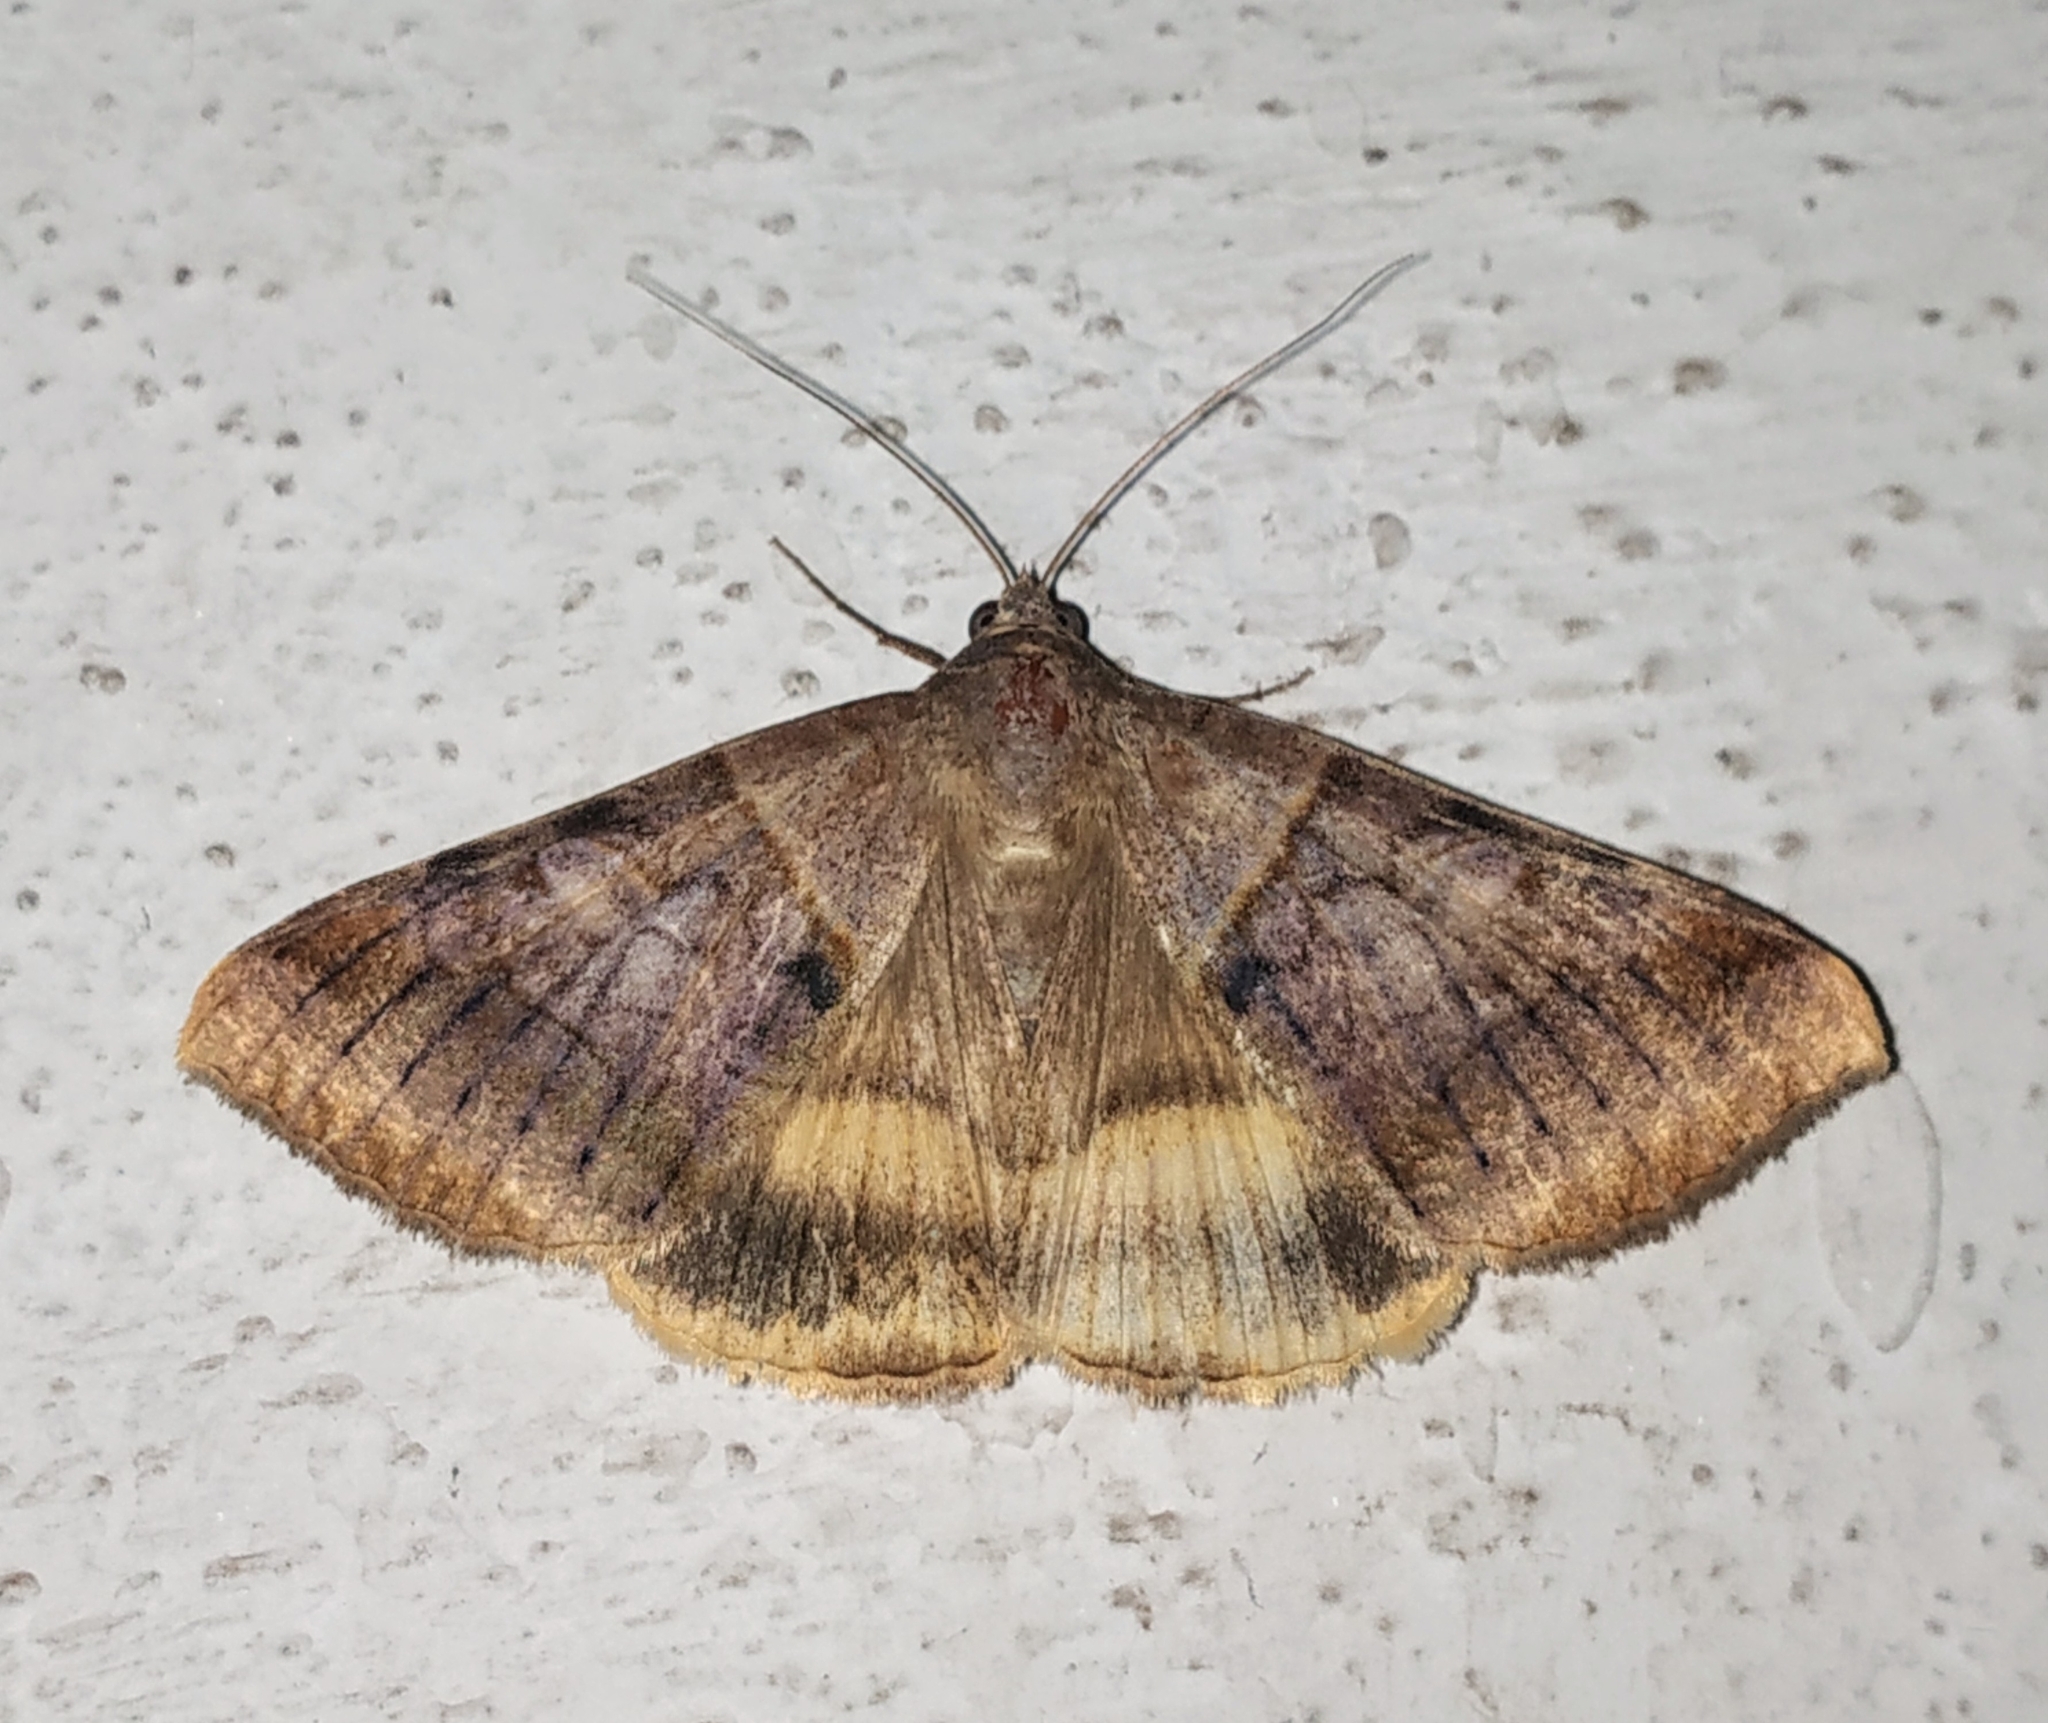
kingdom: Animalia
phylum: Arthropoda
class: Insecta
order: Lepidoptera
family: Erebidae
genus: Mocis
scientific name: Mocis undata
